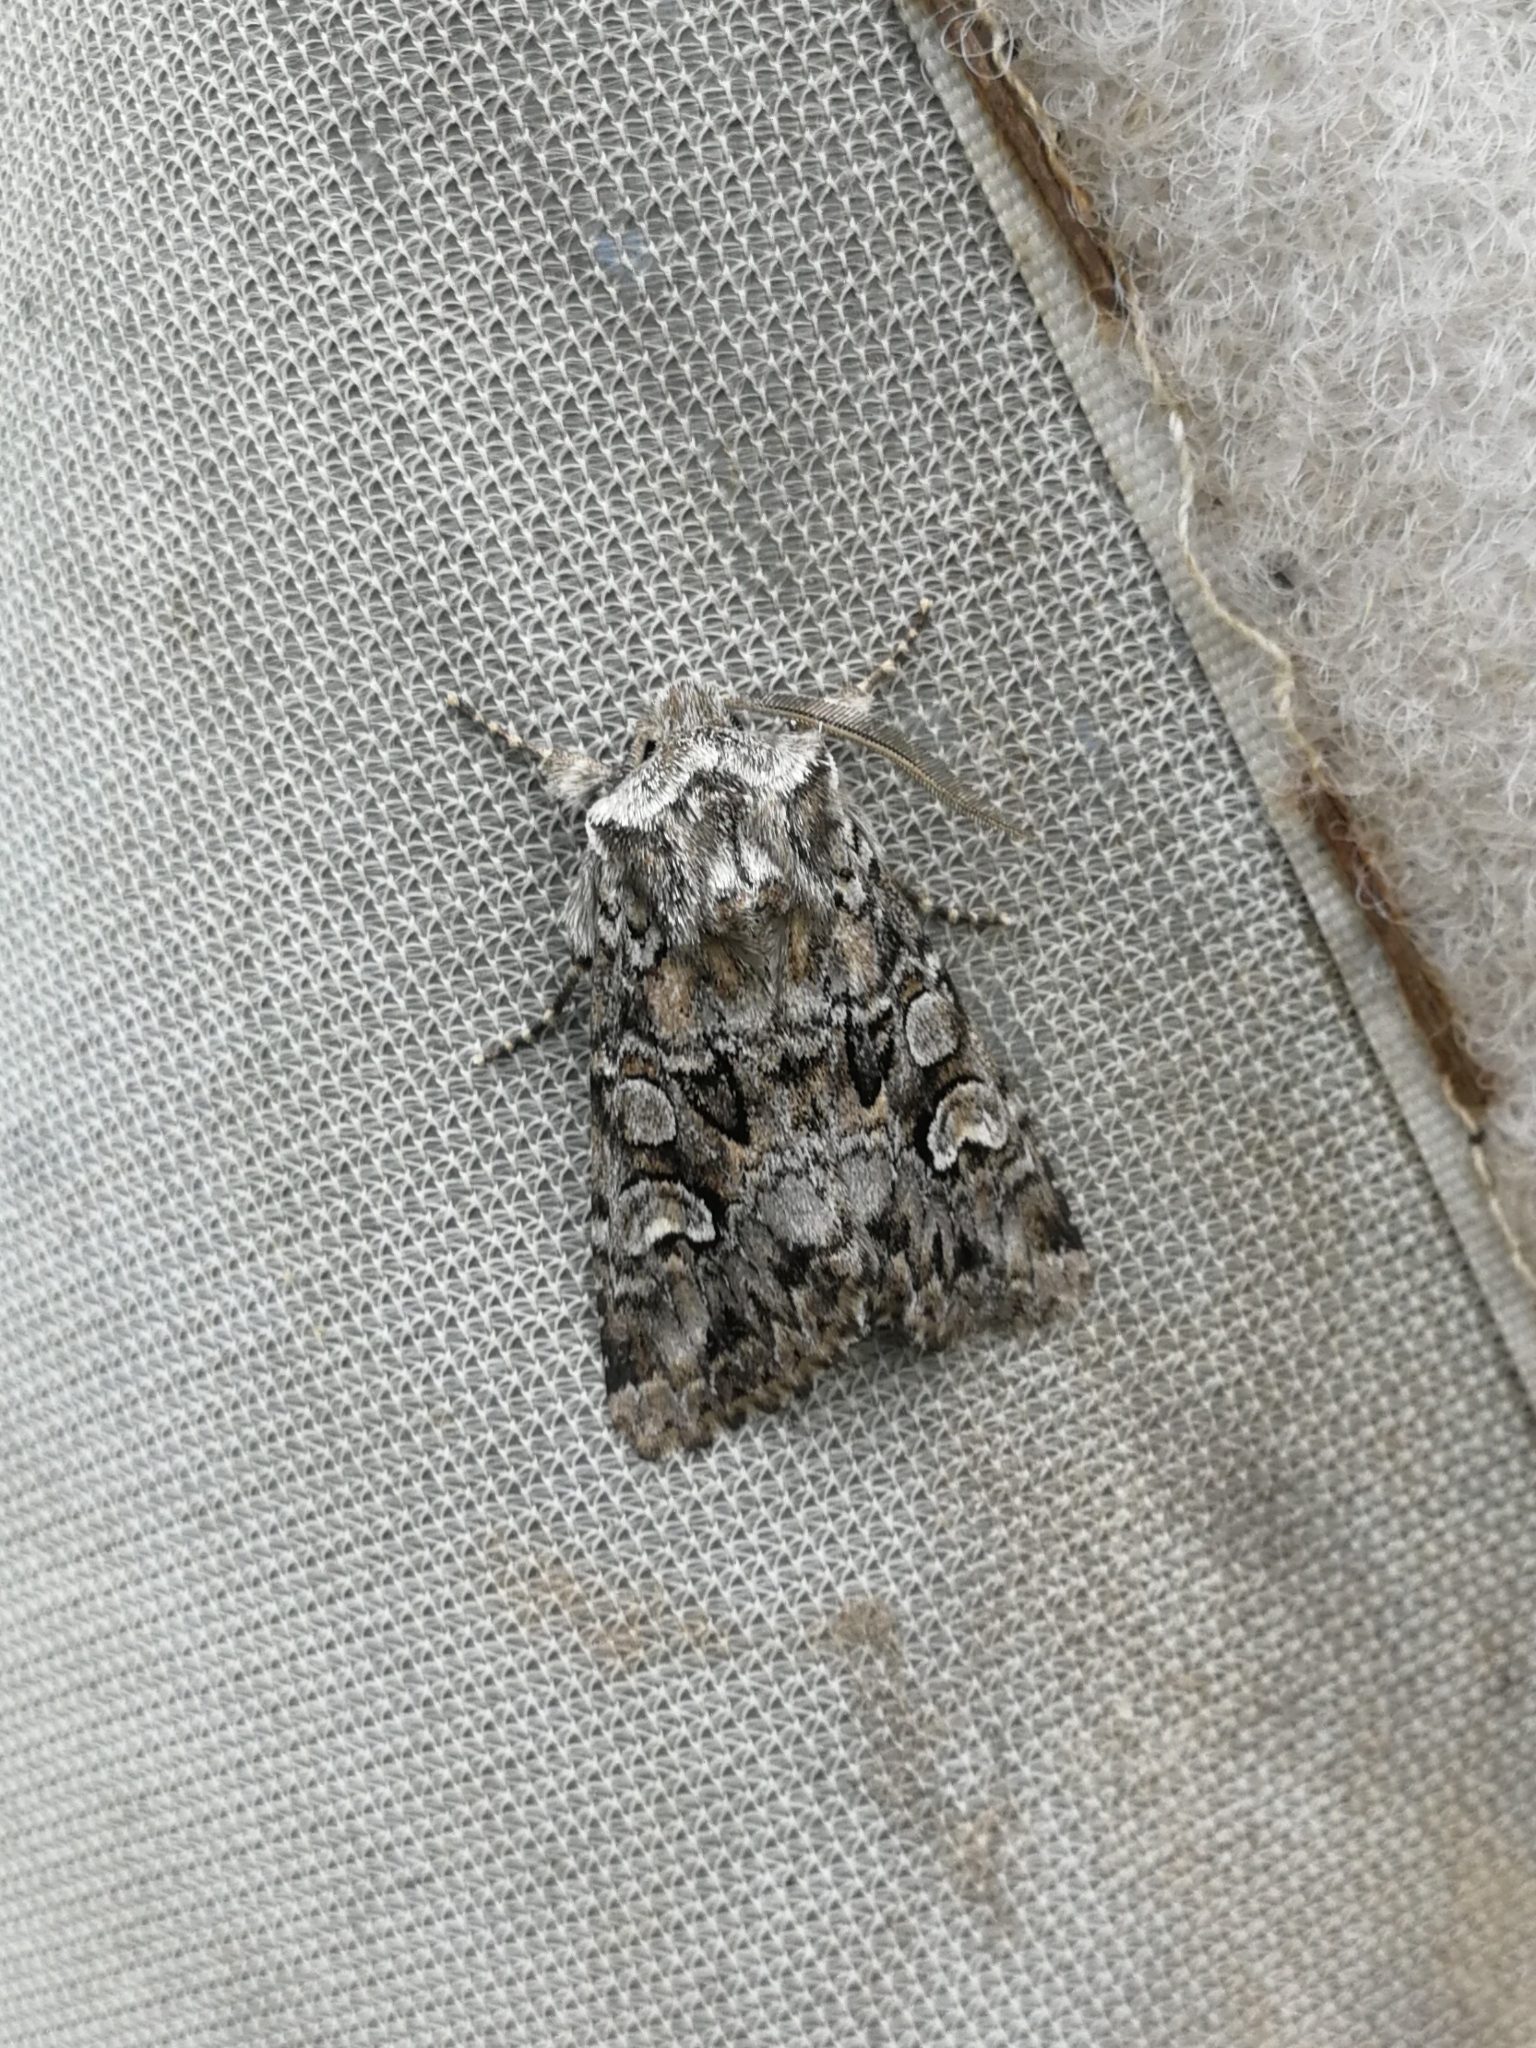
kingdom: Animalia
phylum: Arthropoda
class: Insecta
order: Lepidoptera
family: Noctuidae
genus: Pachetra
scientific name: Pachetra sagittigera
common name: Feathered ear
